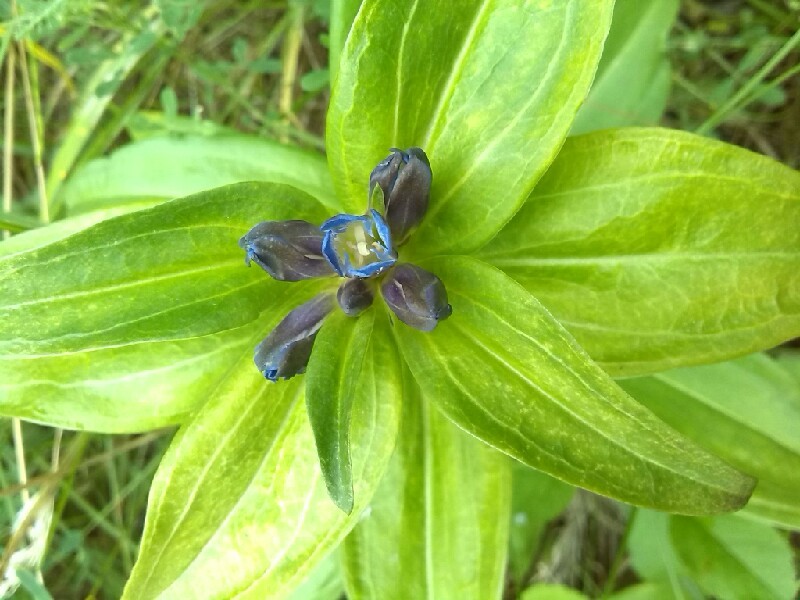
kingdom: Plantae
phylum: Tracheophyta
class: Magnoliopsida
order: Gentianales
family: Gentianaceae
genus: Gentiana
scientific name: Gentiana cruciata
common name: Cross gentian
